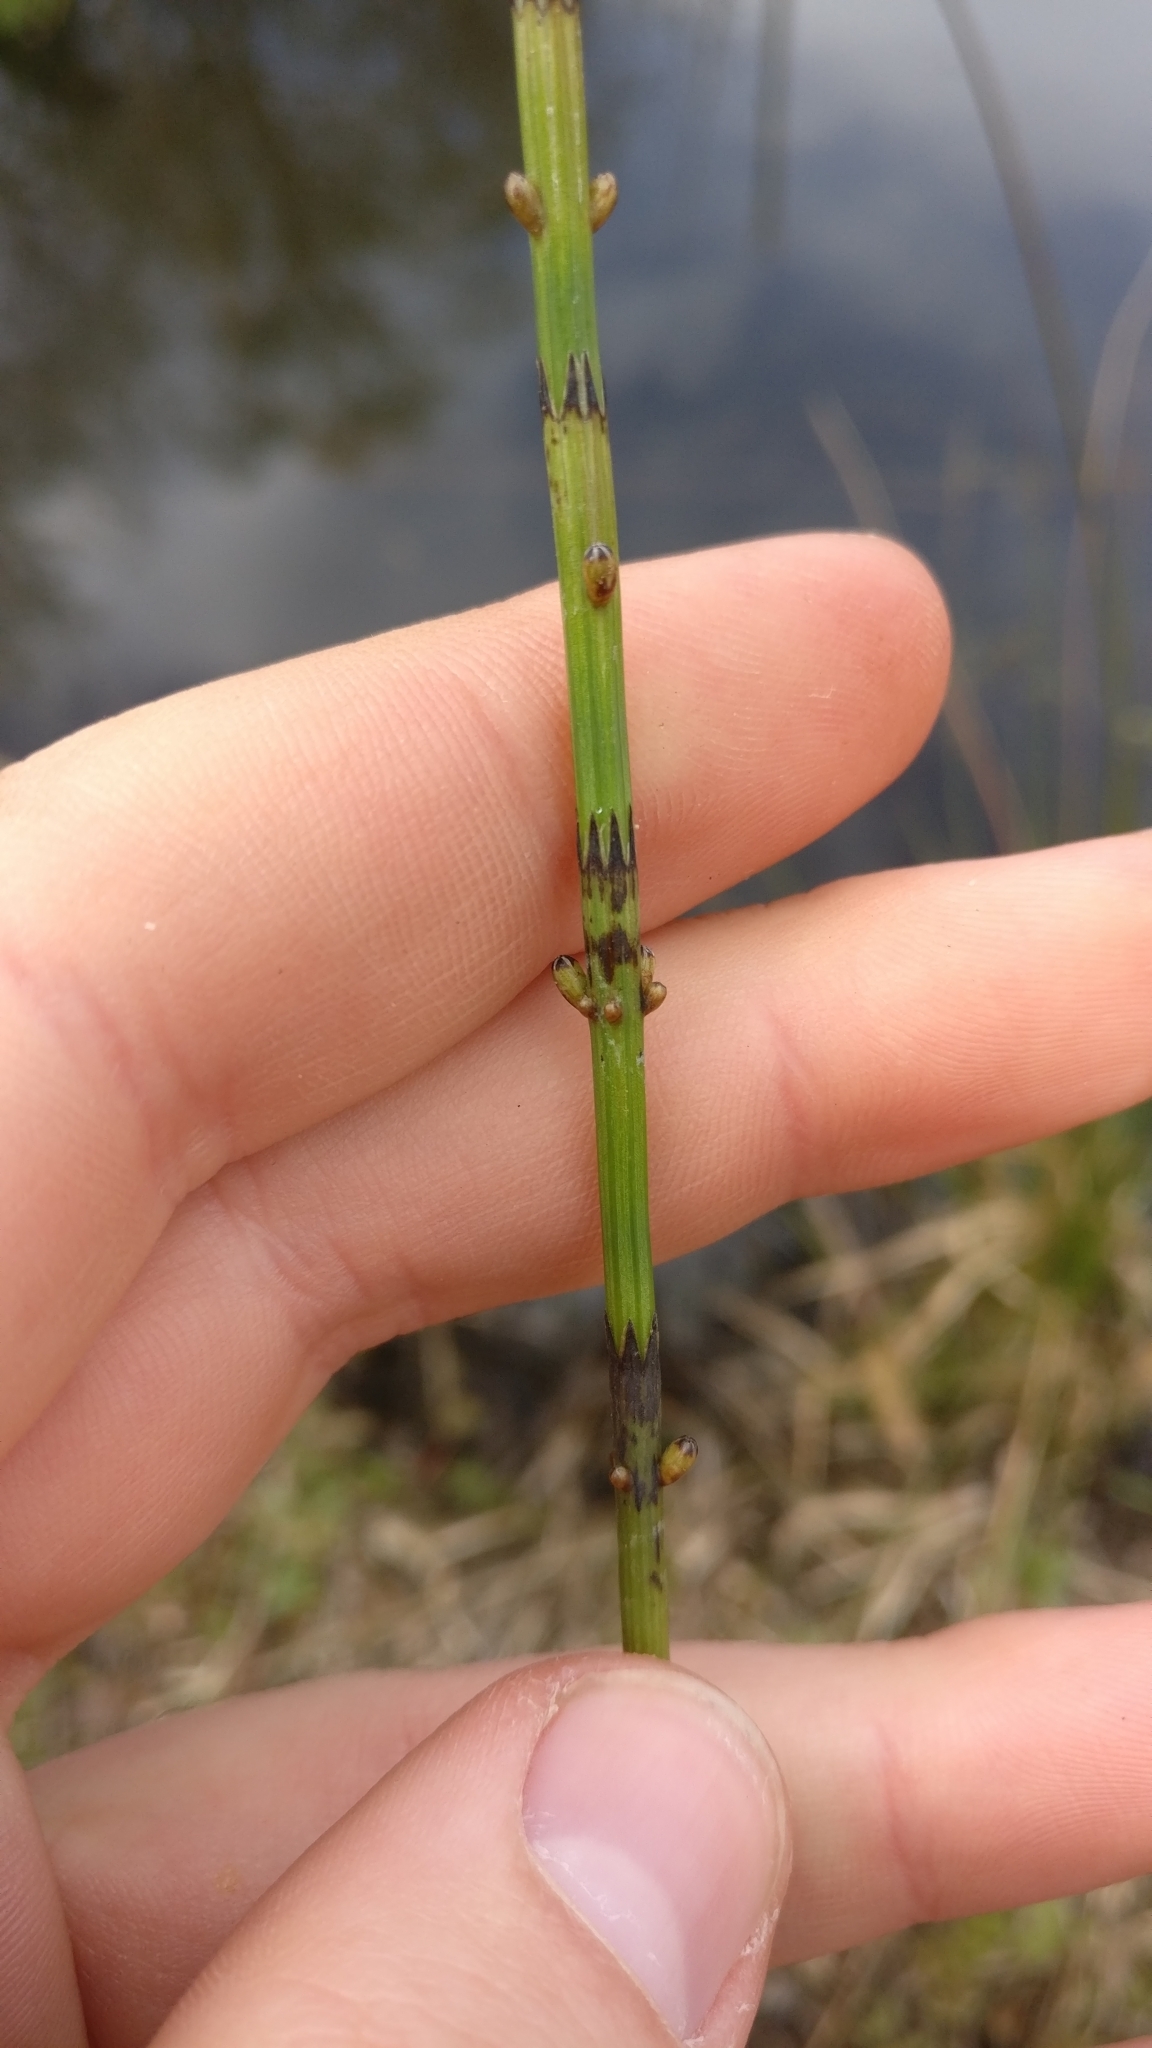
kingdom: Plantae
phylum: Tracheophyta
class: Polypodiopsida
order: Equisetales
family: Equisetaceae
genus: Equisetum
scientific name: Equisetum palustre
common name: Marsh horsetail
